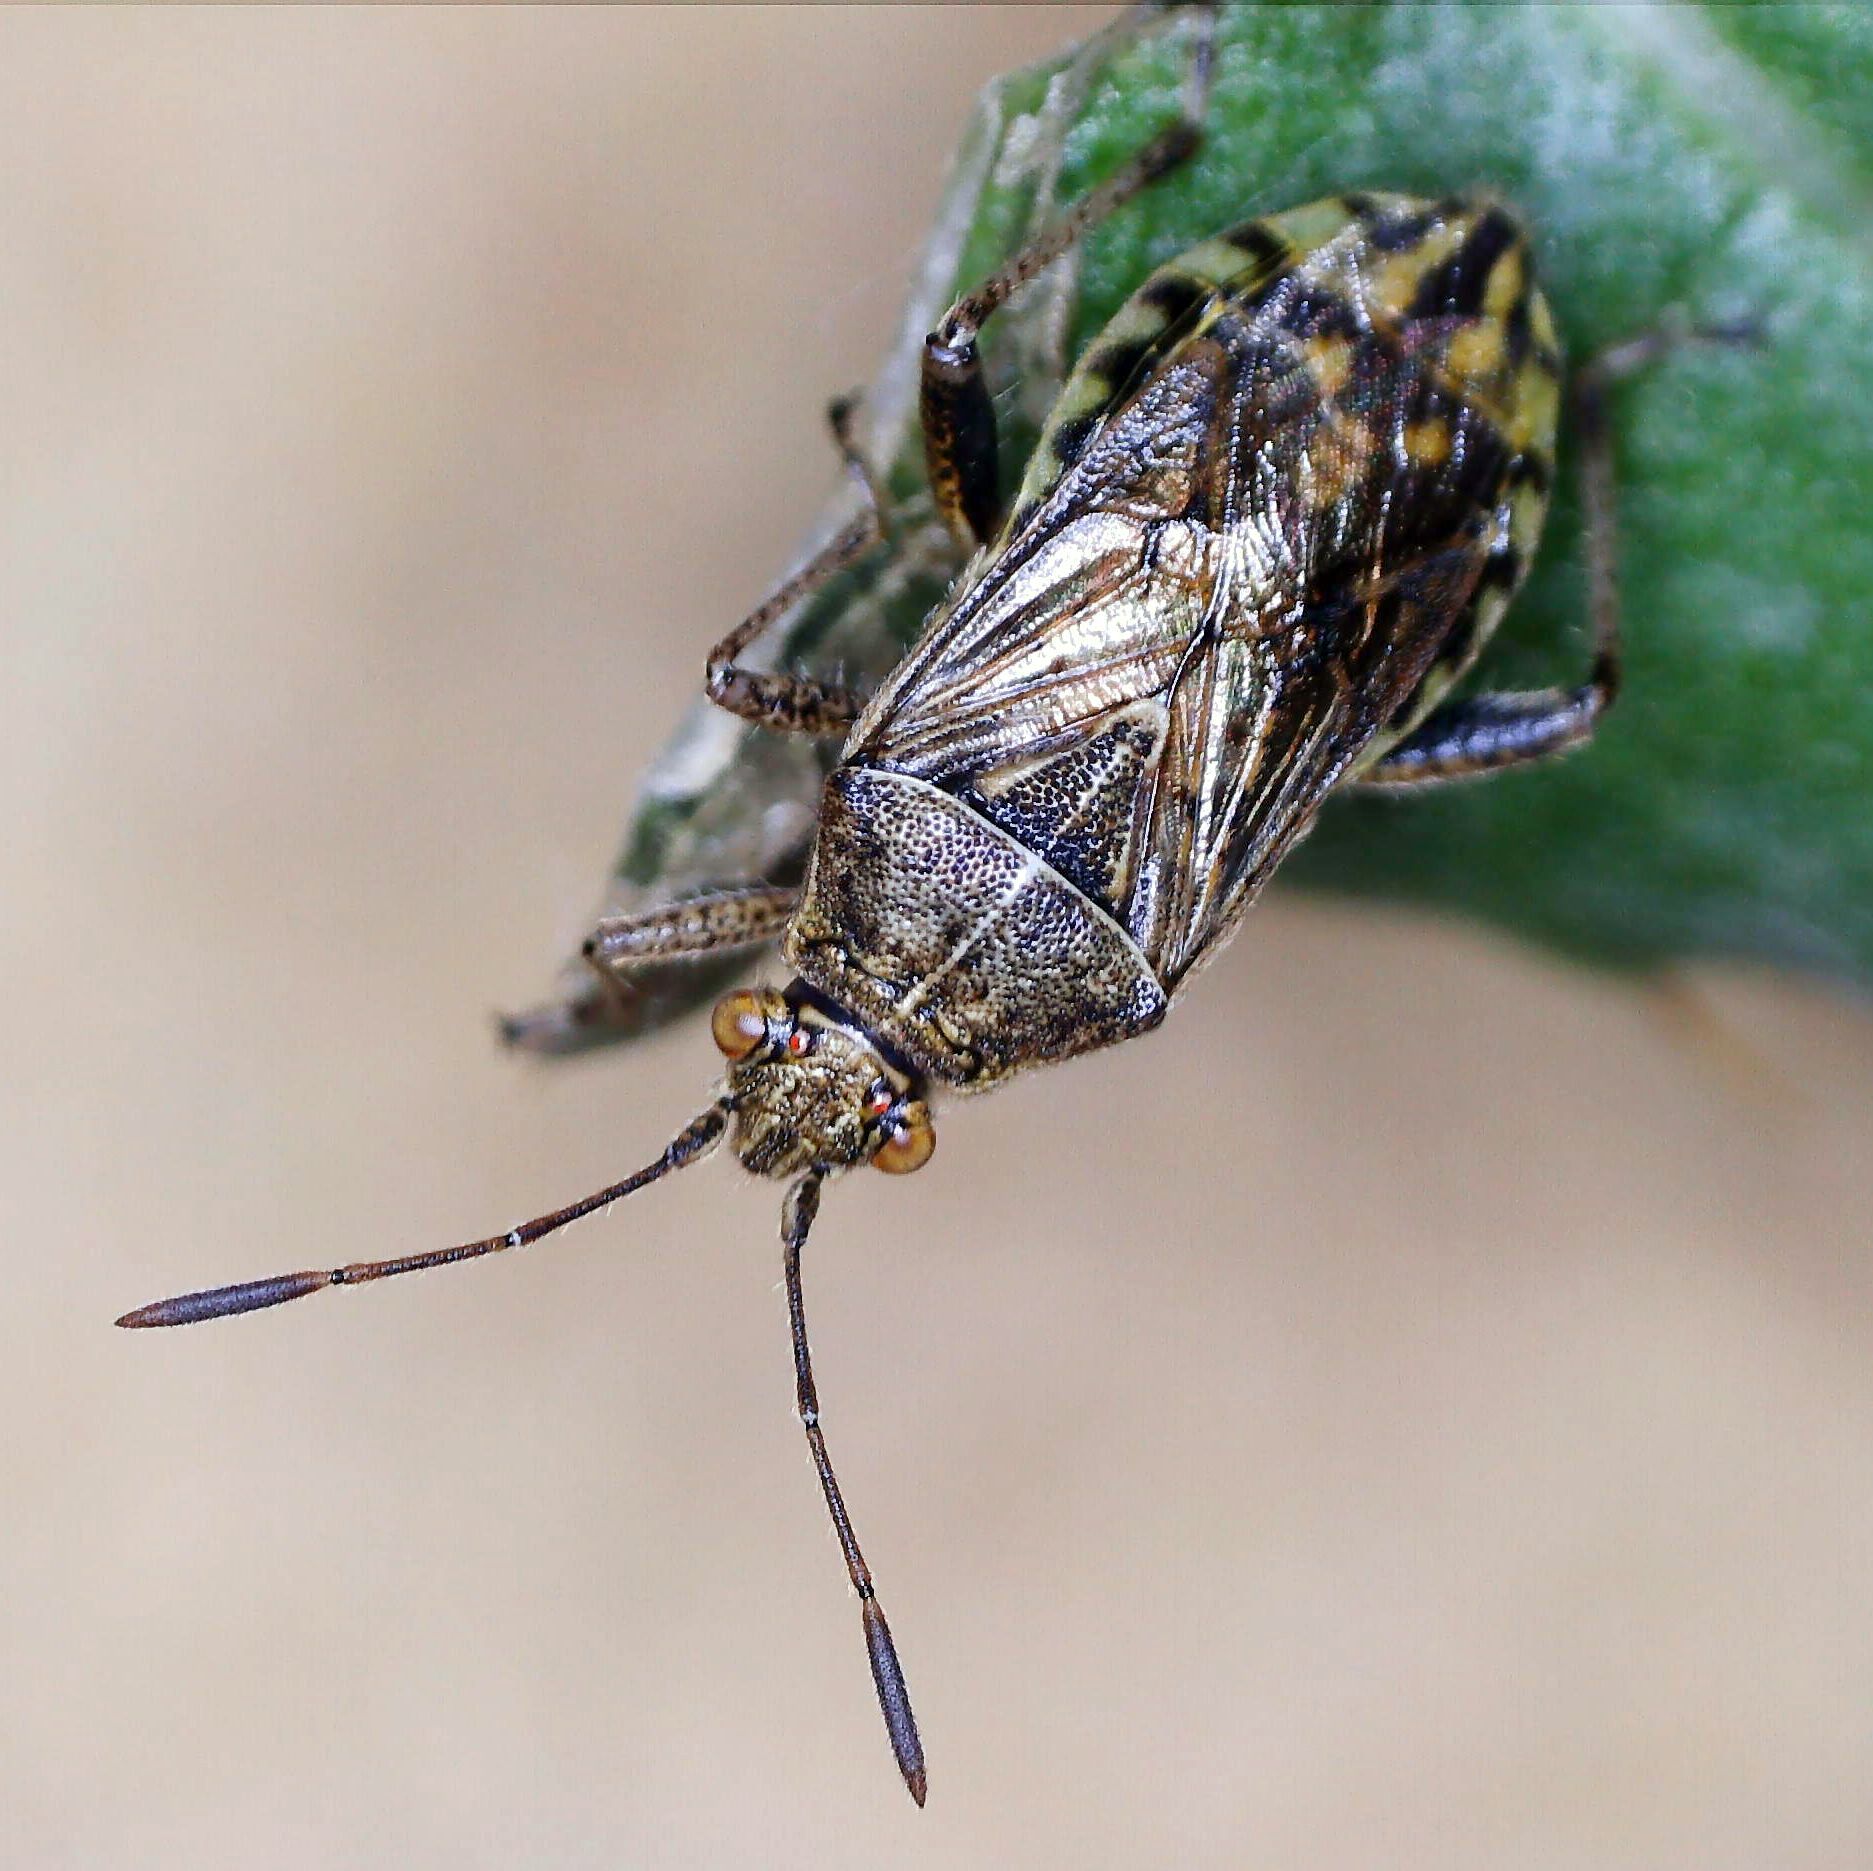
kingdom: Animalia
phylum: Arthropoda
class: Insecta
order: Hemiptera
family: Rhopalidae
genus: Stictopleurus
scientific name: Stictopleurus punctatonervosus
